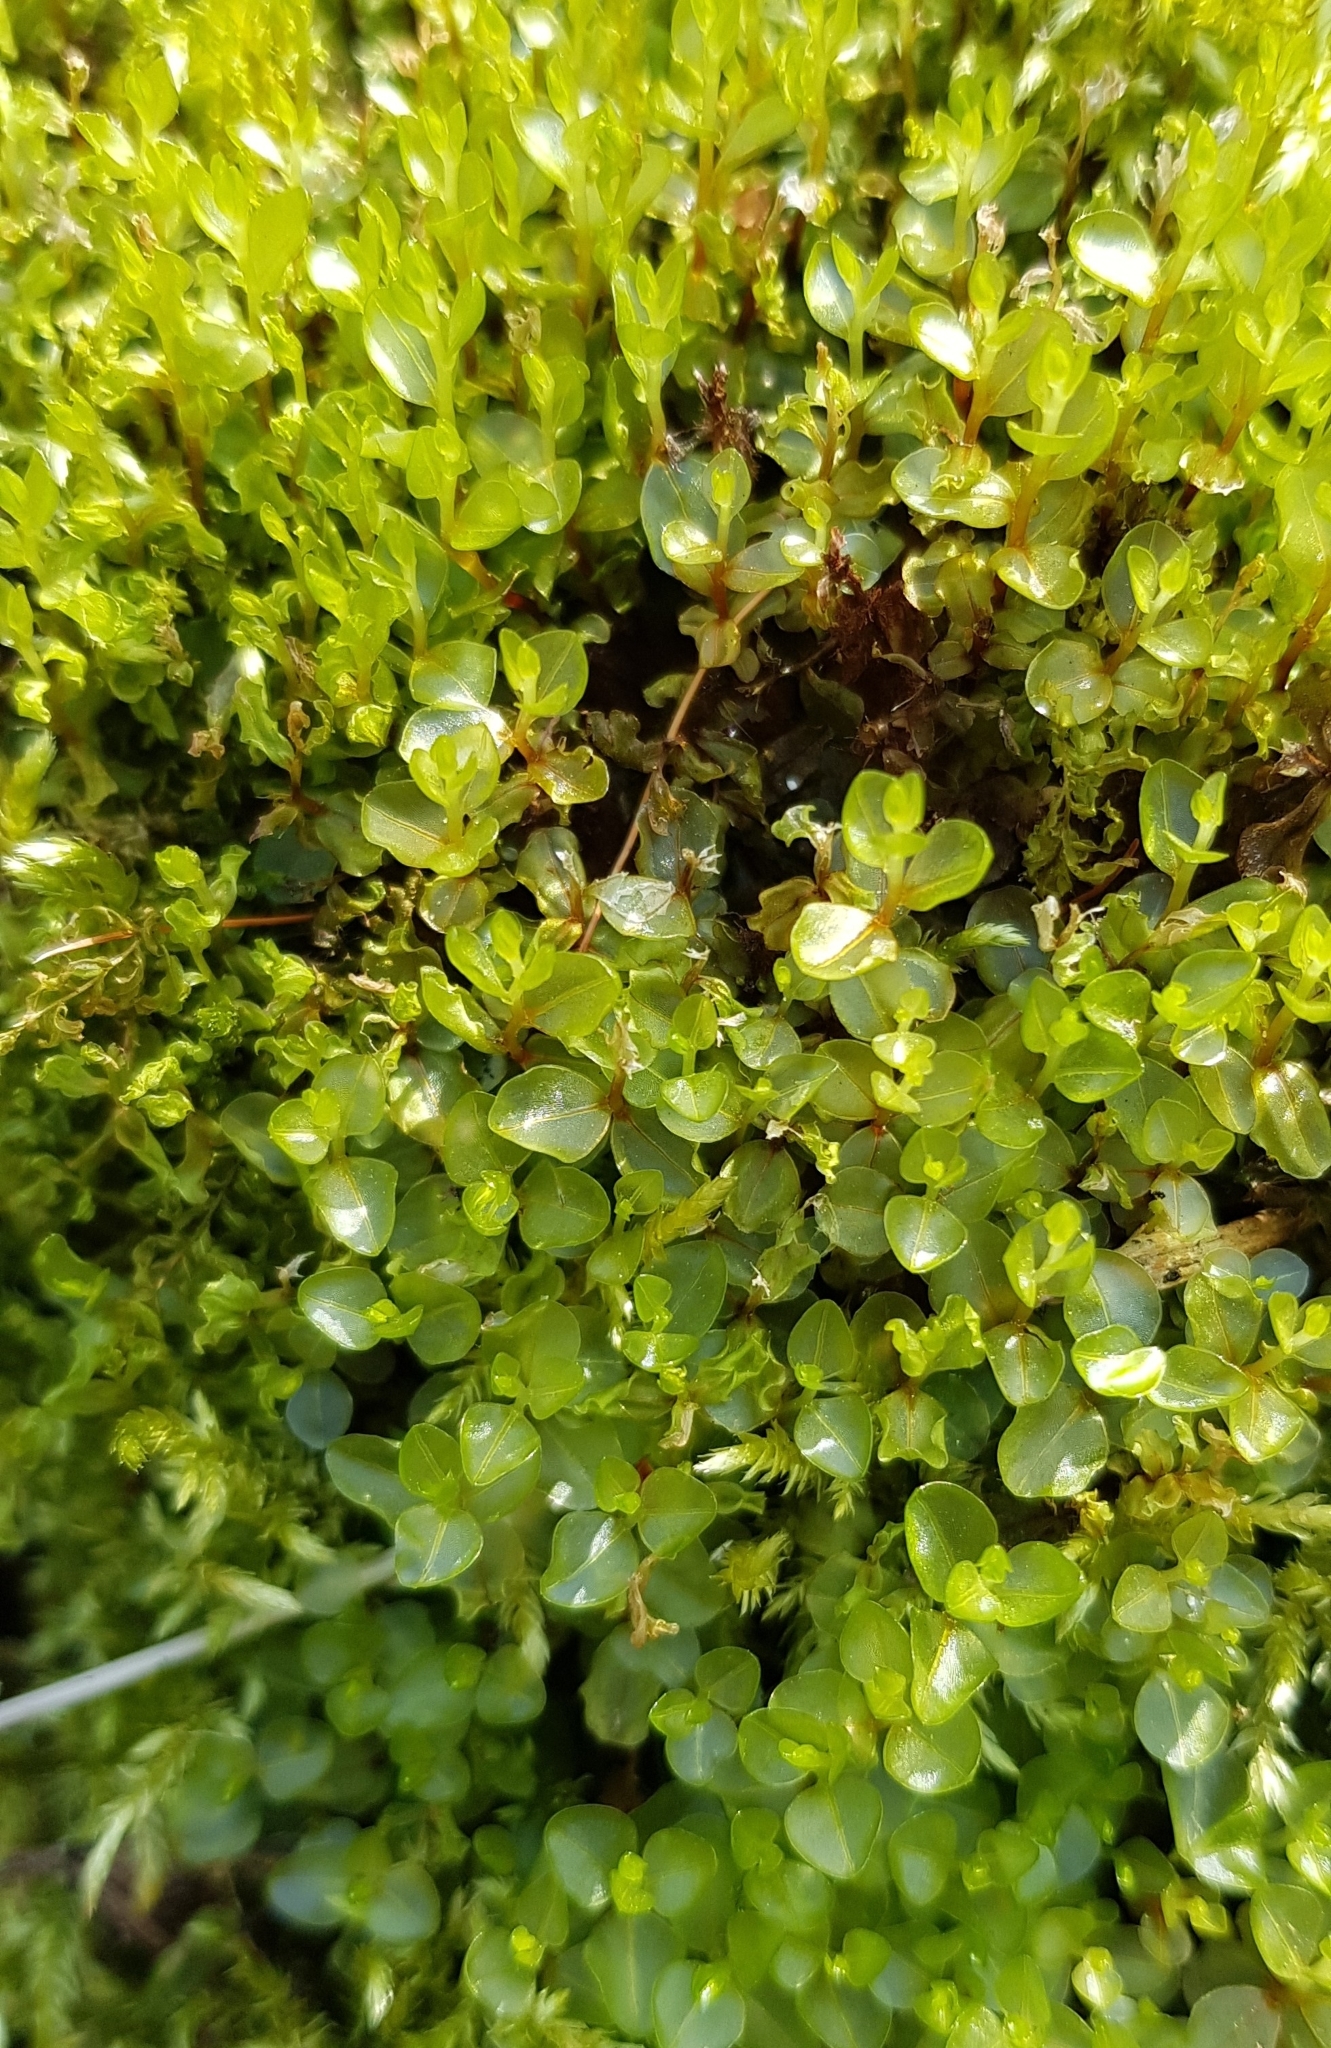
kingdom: Plantae
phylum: Bryophyta
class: Bryopsida
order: Bryales
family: Mniaceae
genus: Rhizomnium
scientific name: Rhizomnium punctatum
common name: Dotted leafy moss
